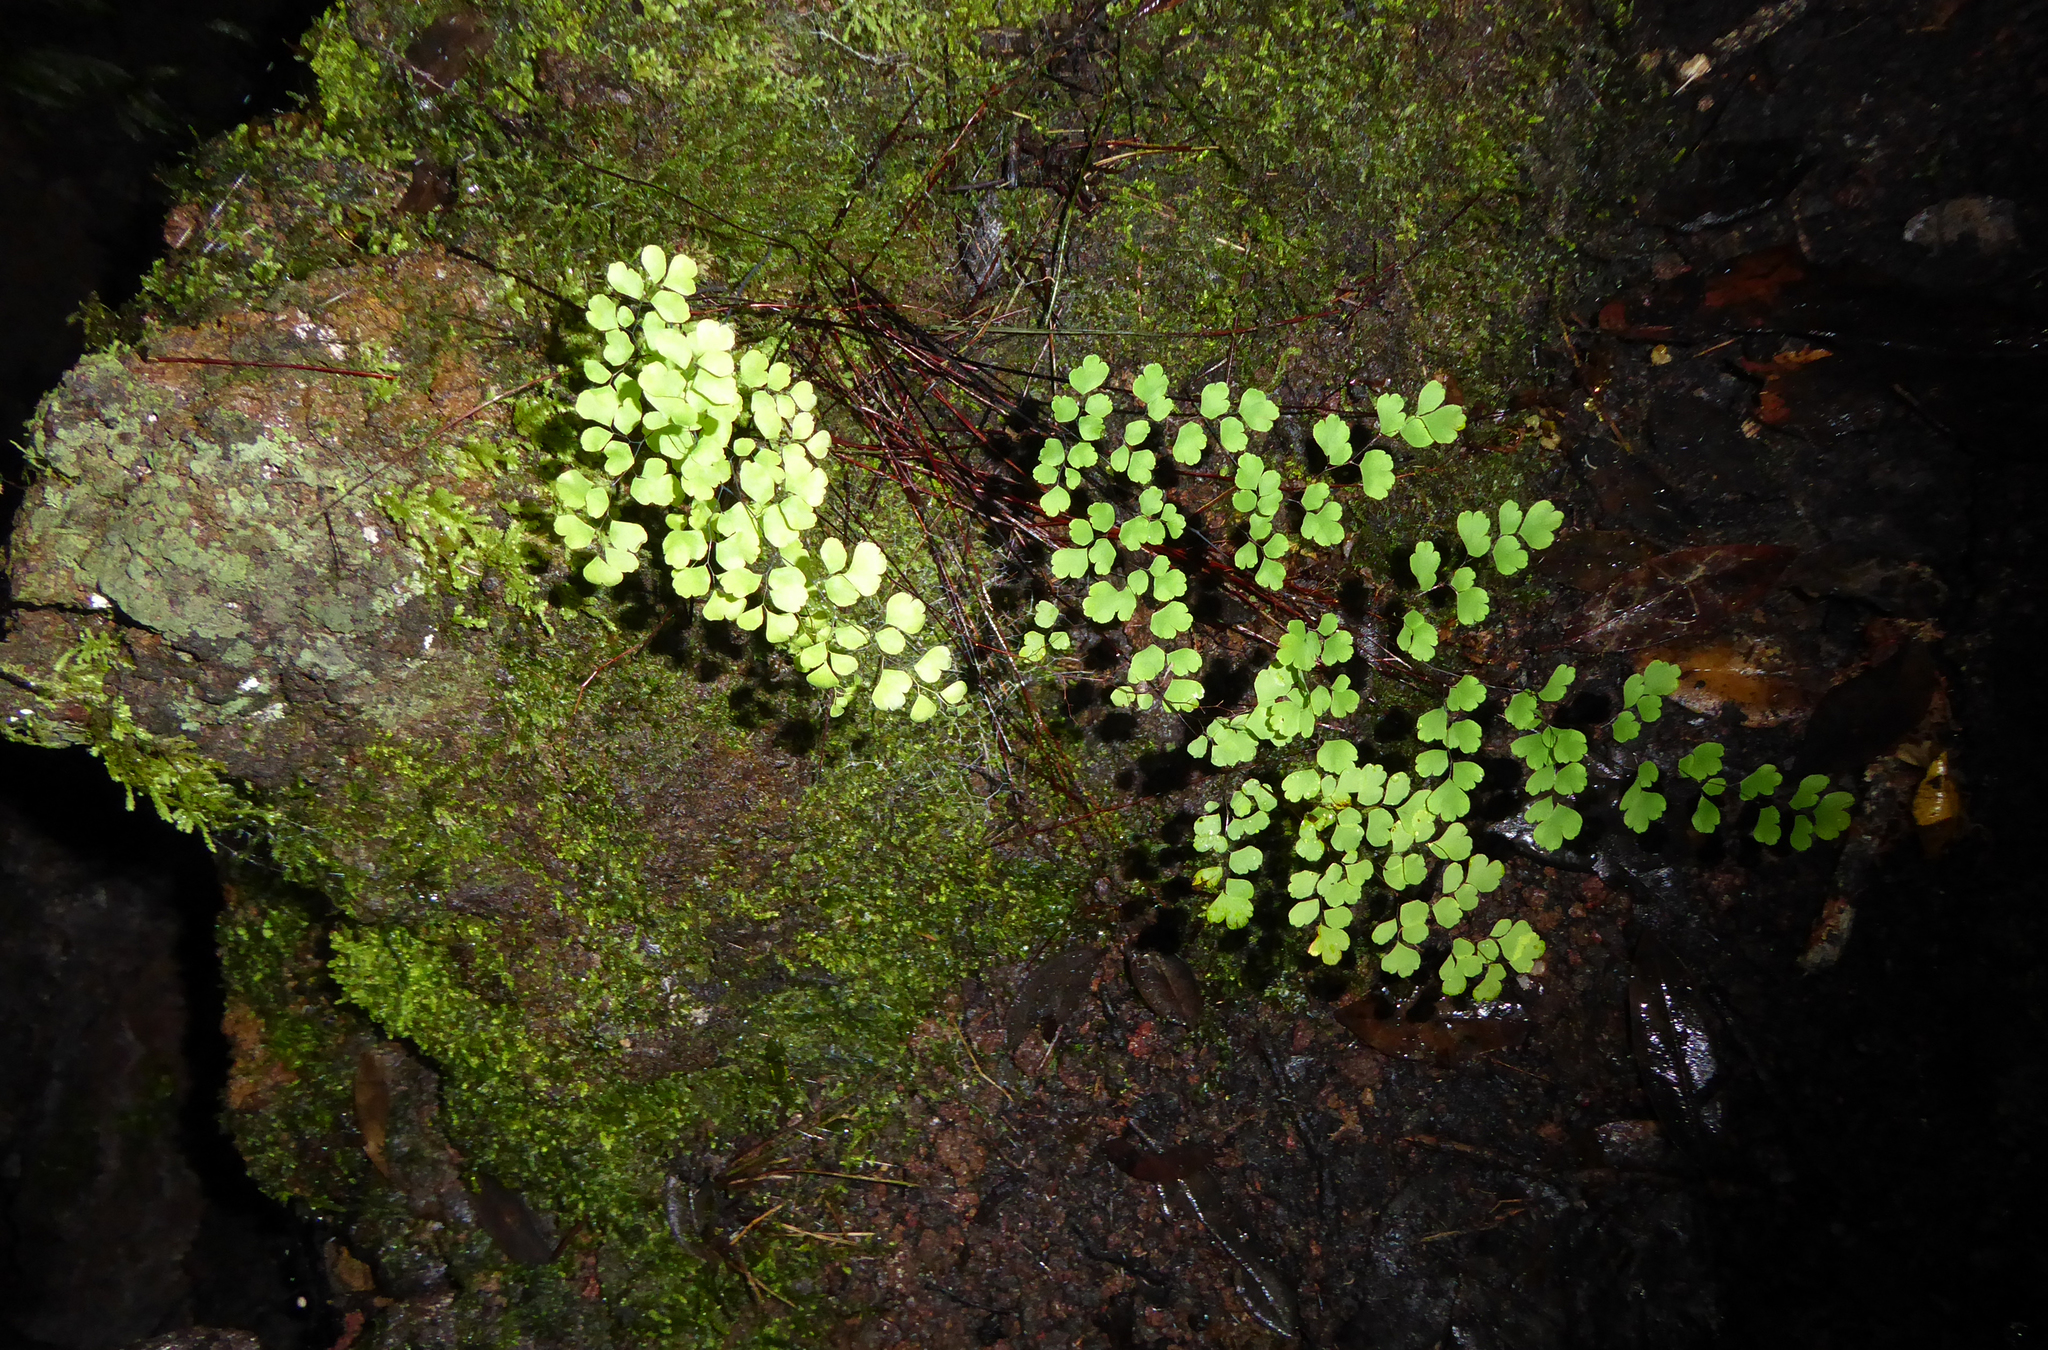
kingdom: Plantae
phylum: Tracheophyta
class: Polypodiopsida
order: Polypodiales
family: Pteridaceae
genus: Adiantum
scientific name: Adiantum raddianum
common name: Delta maidenhair fern
